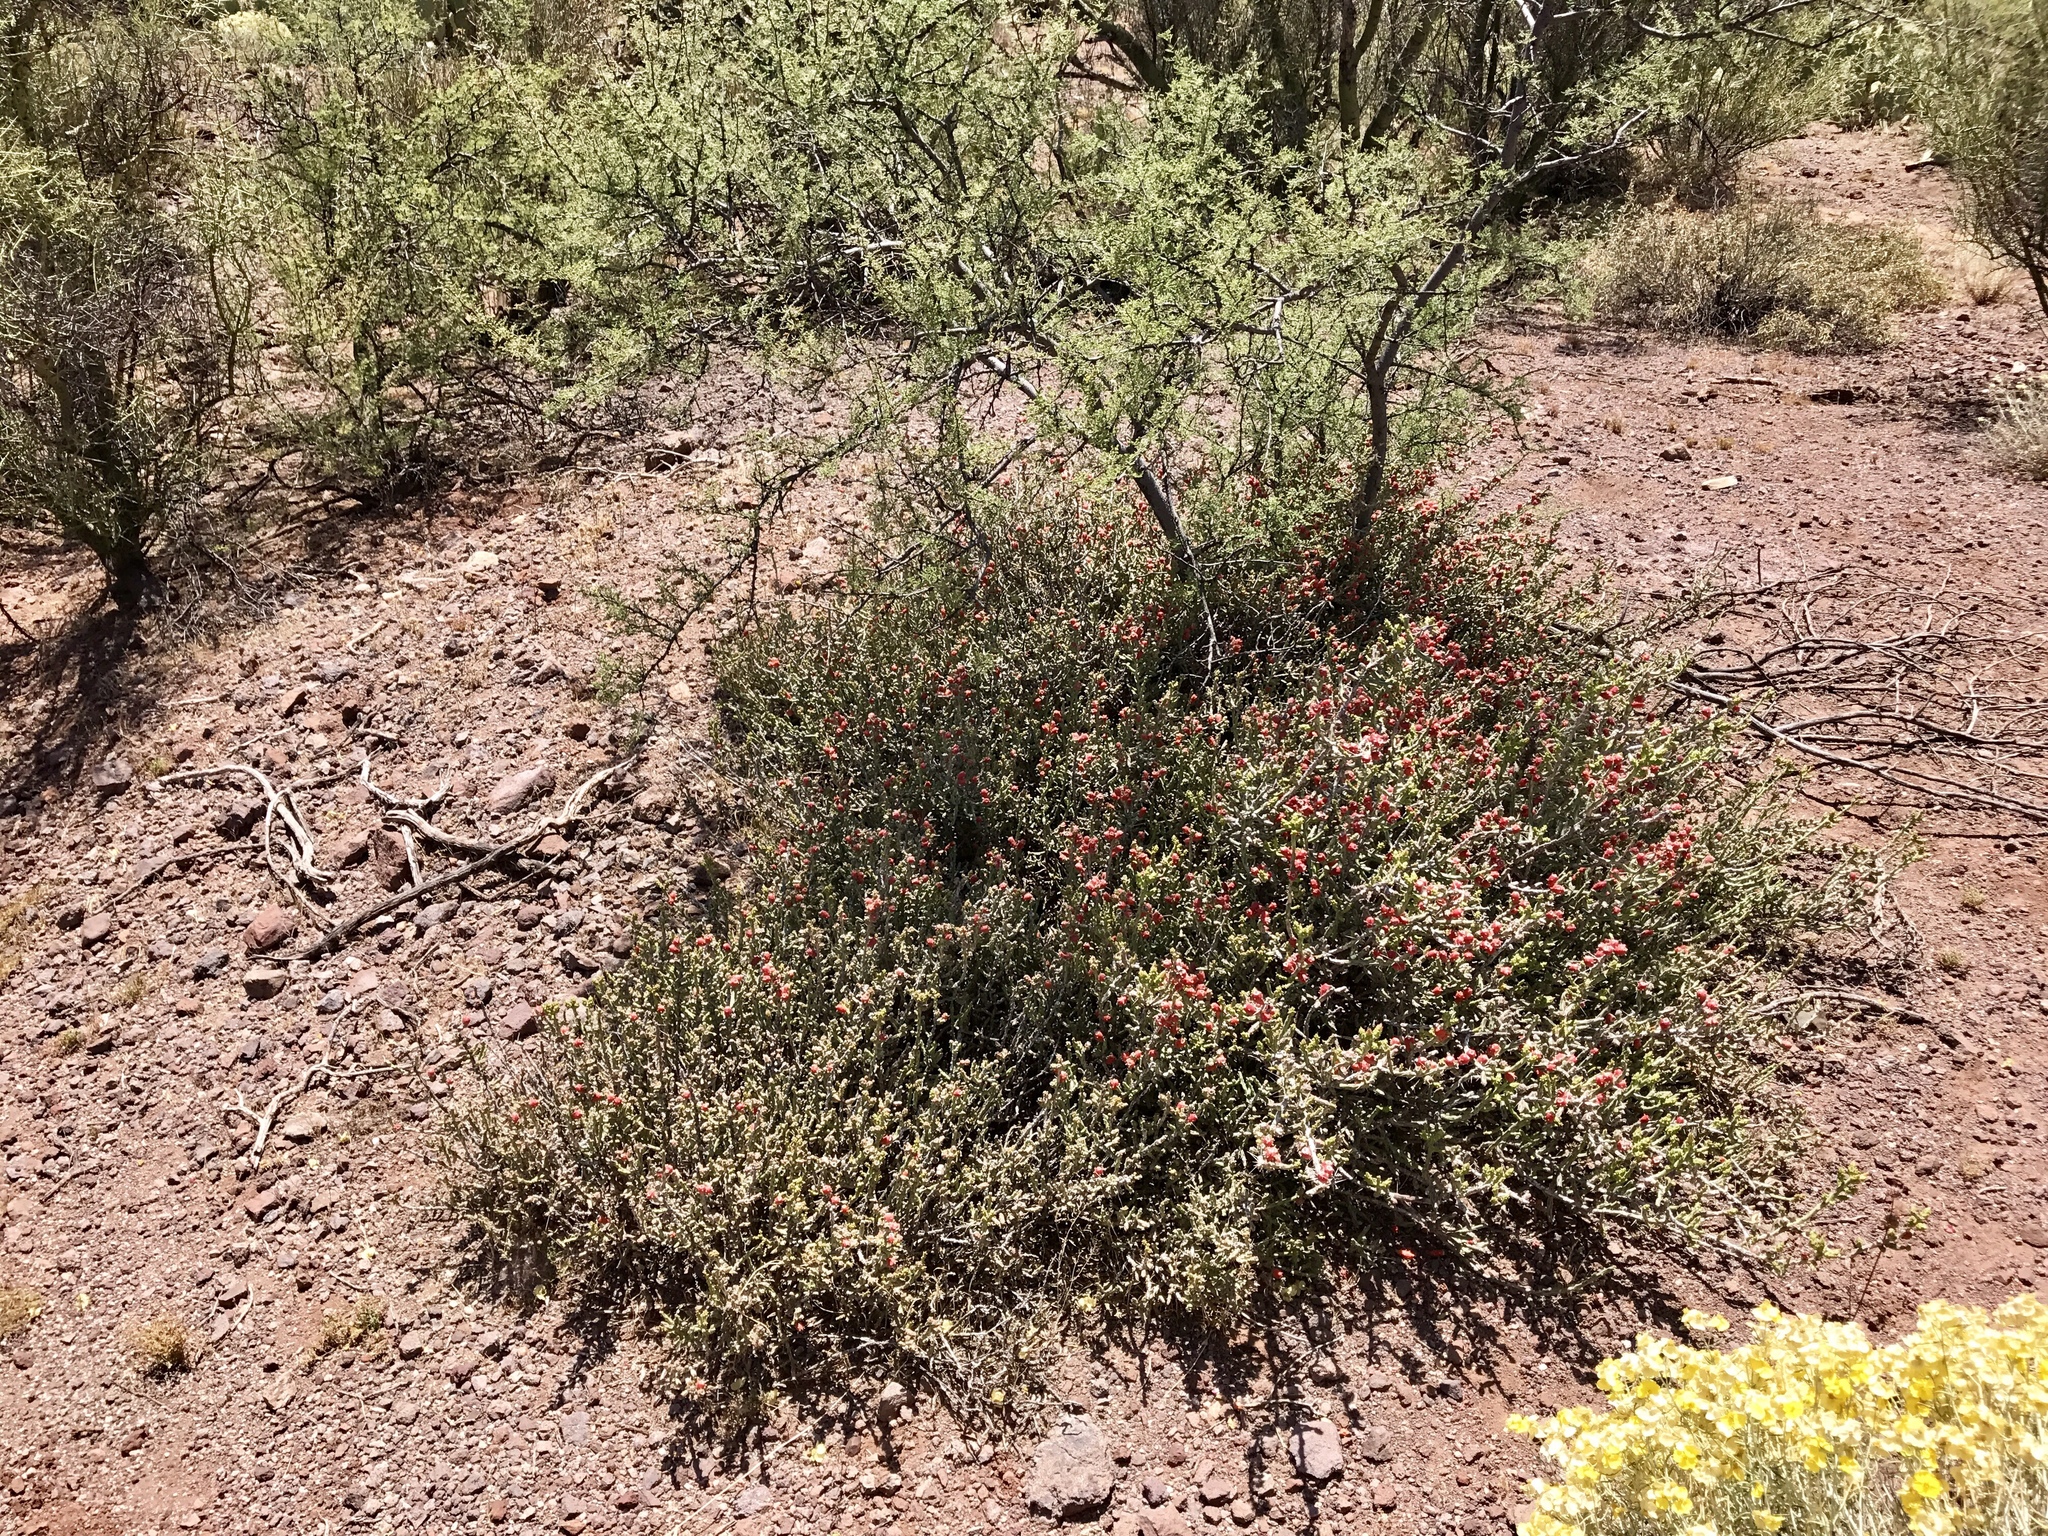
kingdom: Plantae
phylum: Tracheophyta
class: Magnoliopsida
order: Caryophyllales
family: Cactaceae
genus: Cylindropuntia
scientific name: Cylindropuntia leptocaulis
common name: Christmas cactus
